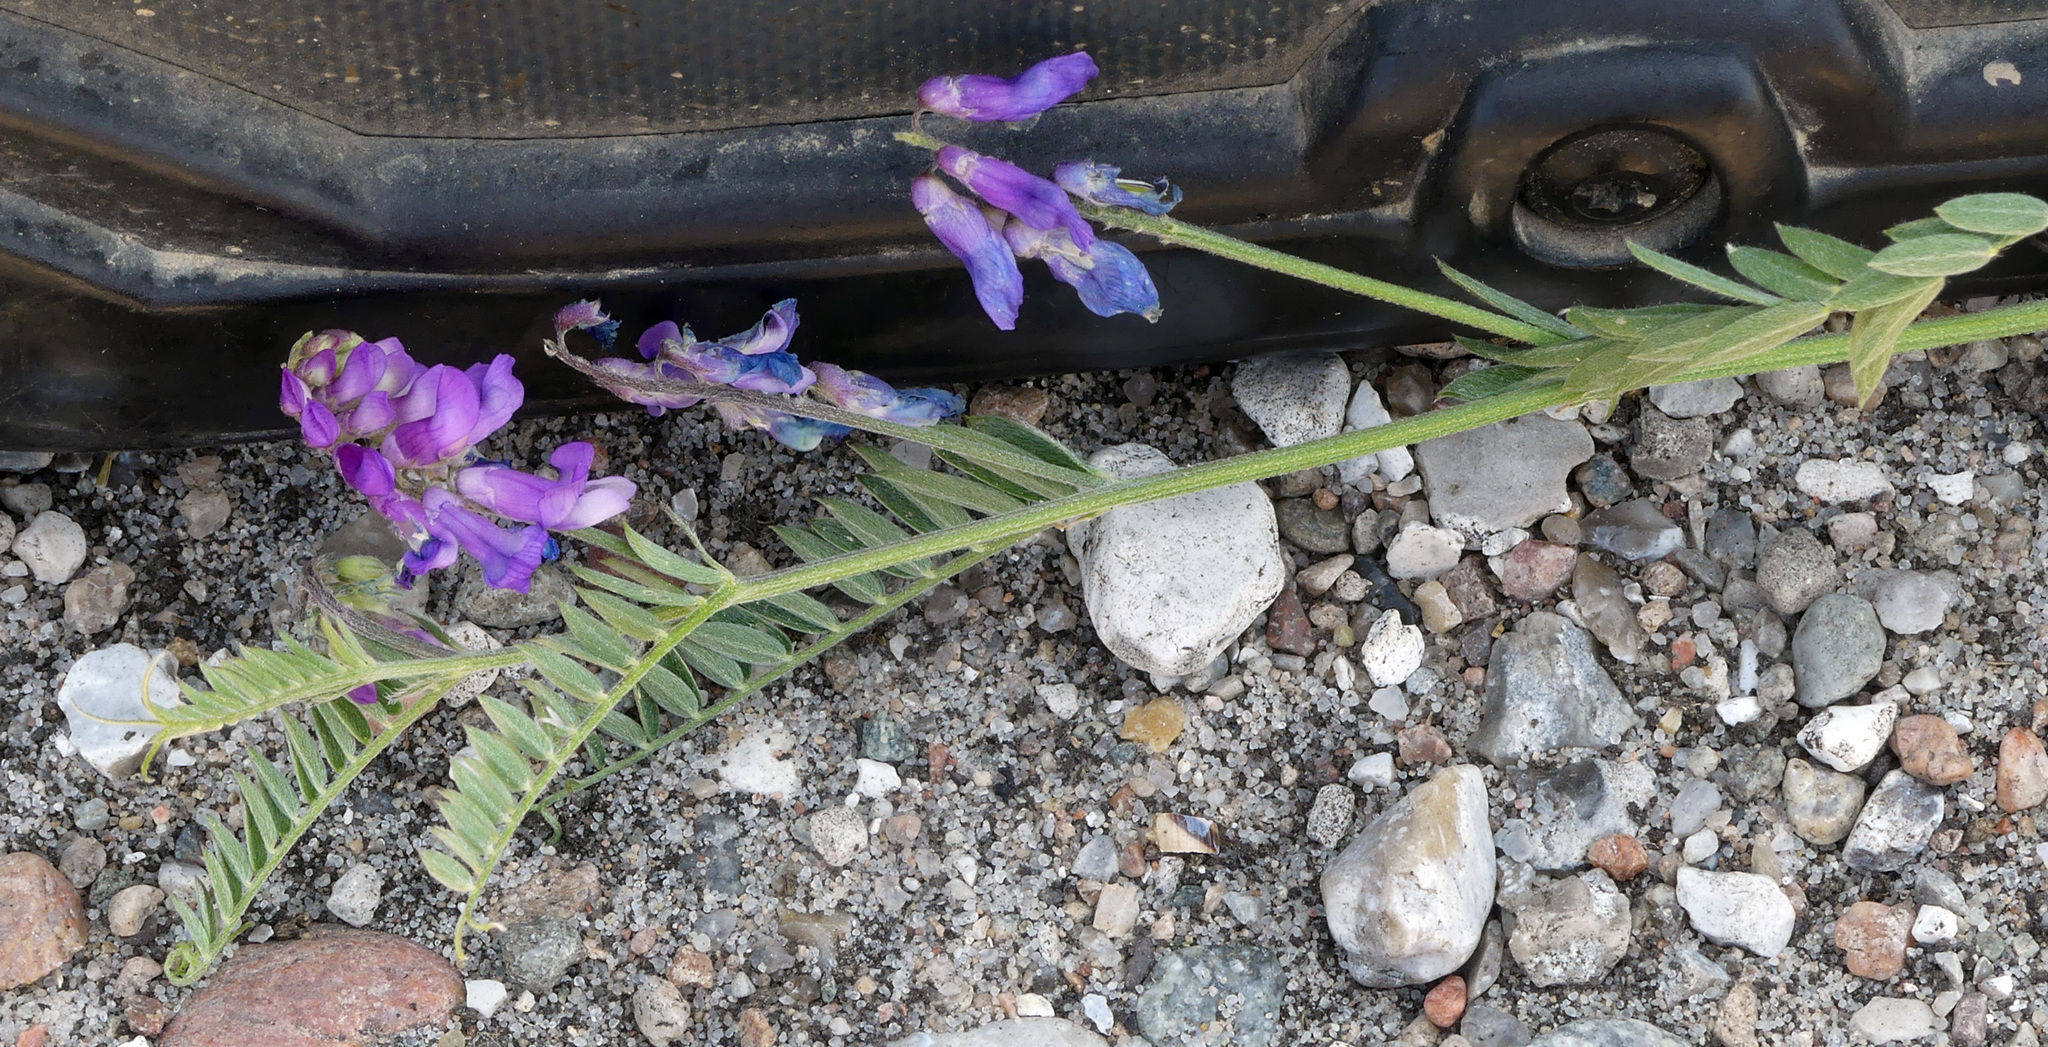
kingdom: Plantae
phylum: Tracheophyta
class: Magnoliopsida
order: Fabales
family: Fabaceae
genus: Vicia
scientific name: Vicia cracca
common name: Bird vetch
